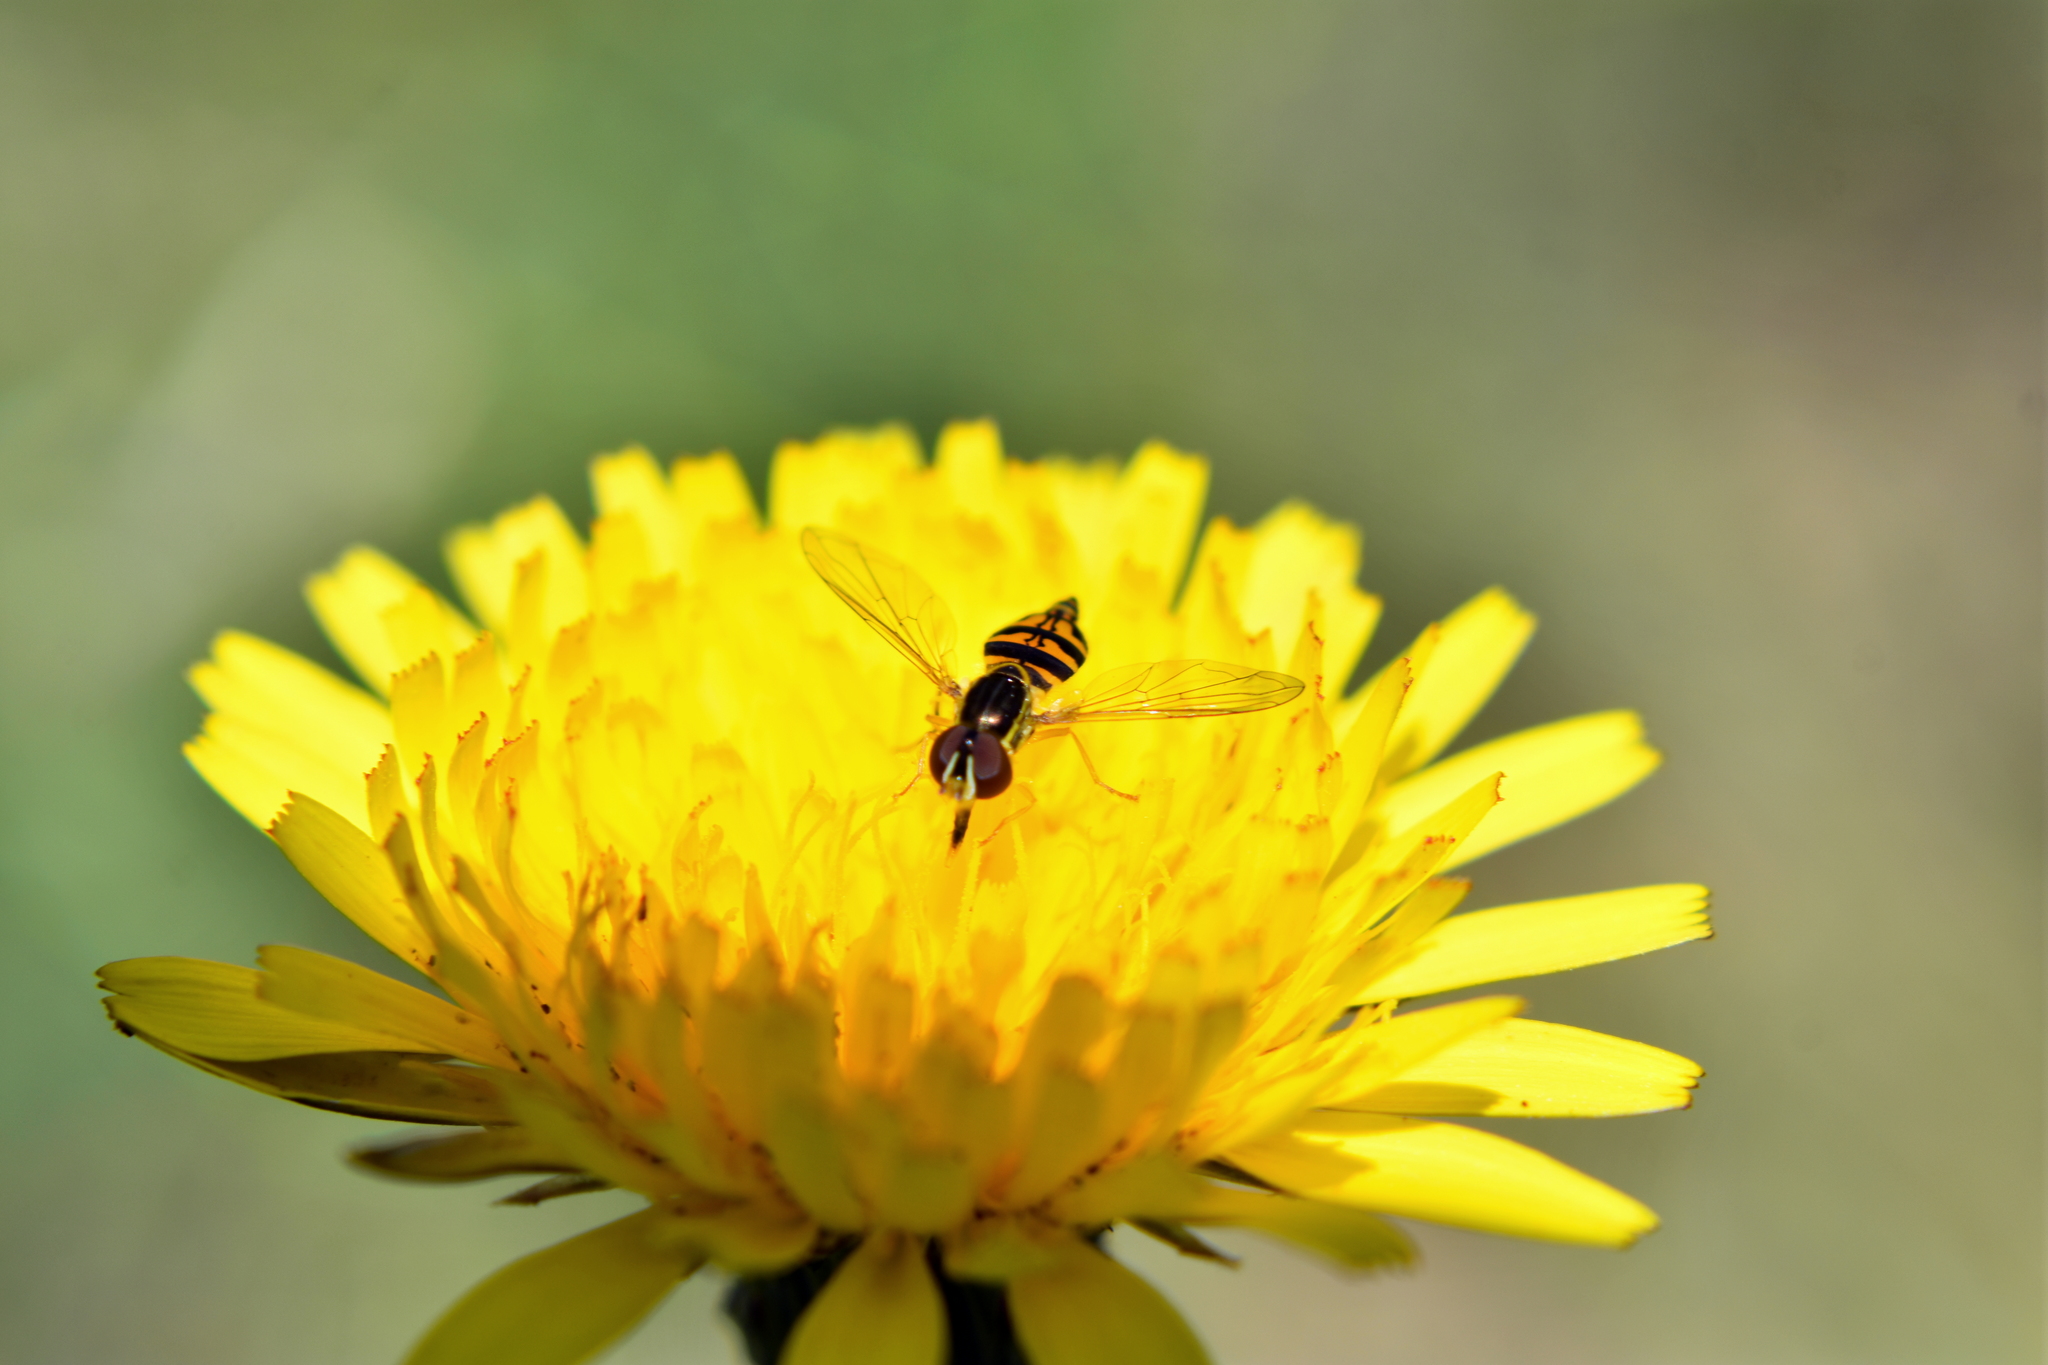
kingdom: Animalia
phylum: Arthropoda
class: Insecta
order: Diptera
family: Syrphidae
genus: Toxomerus
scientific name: Toxomerus occidentalis
